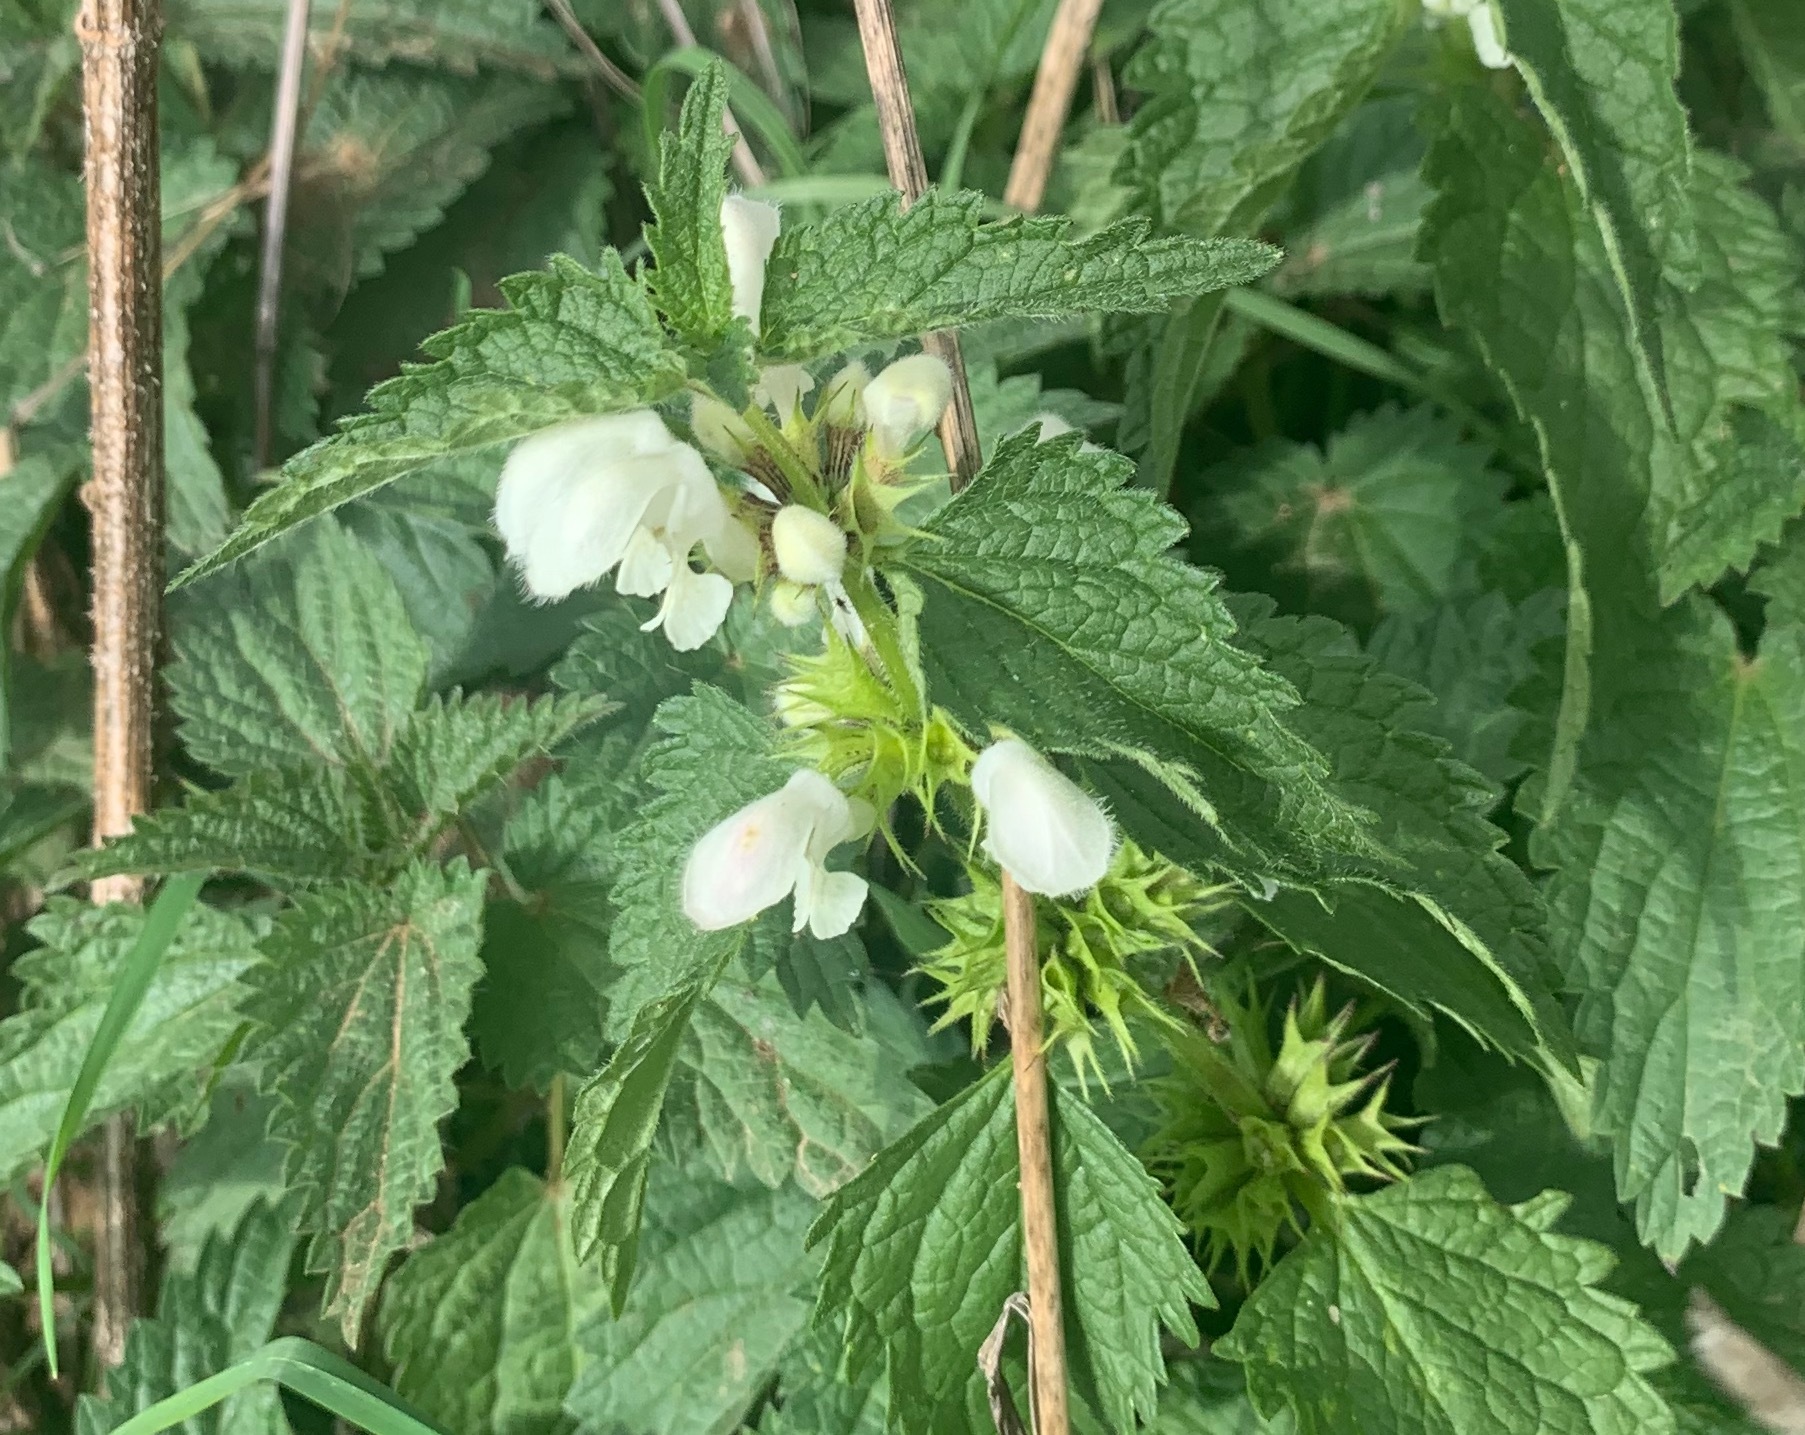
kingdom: Plantae
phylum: Tracheophyta
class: Magnoliopsida
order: Lamiales
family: Lamiaceae
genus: Lamium
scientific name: Lamium album
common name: White dead-nettle
